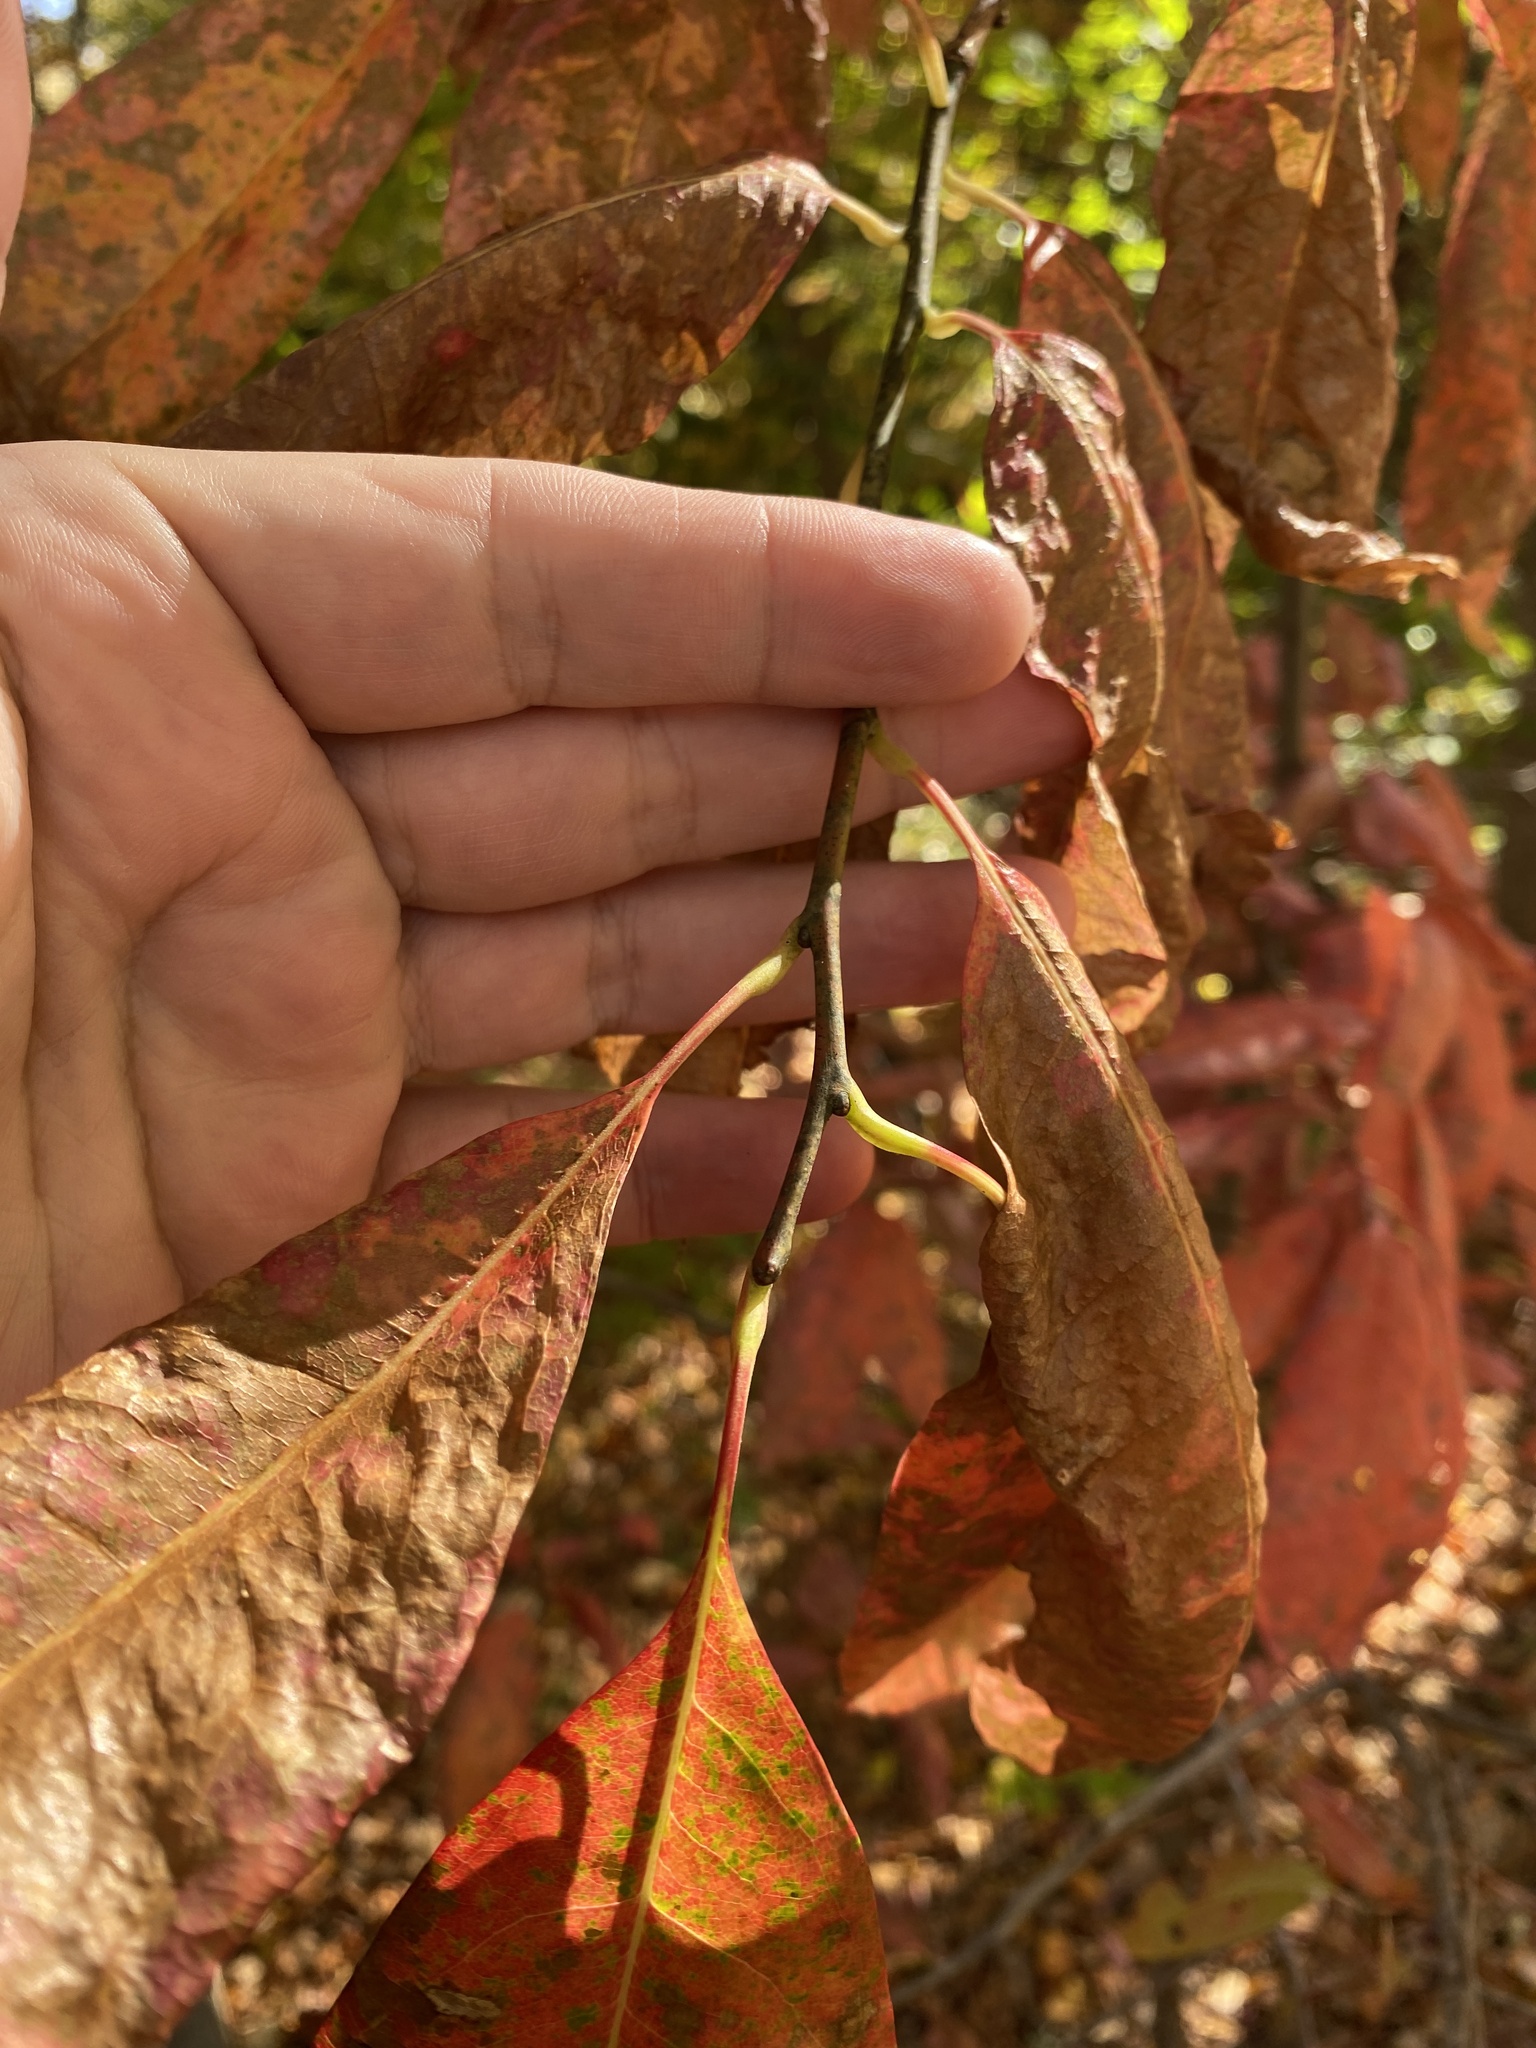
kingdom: Plantae
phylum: Tracheophyta
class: Magnoliopsida
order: Ericales
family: Ericaceae
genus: Oxydendrum
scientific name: Oxydendrum arboreum
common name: Sourwood
